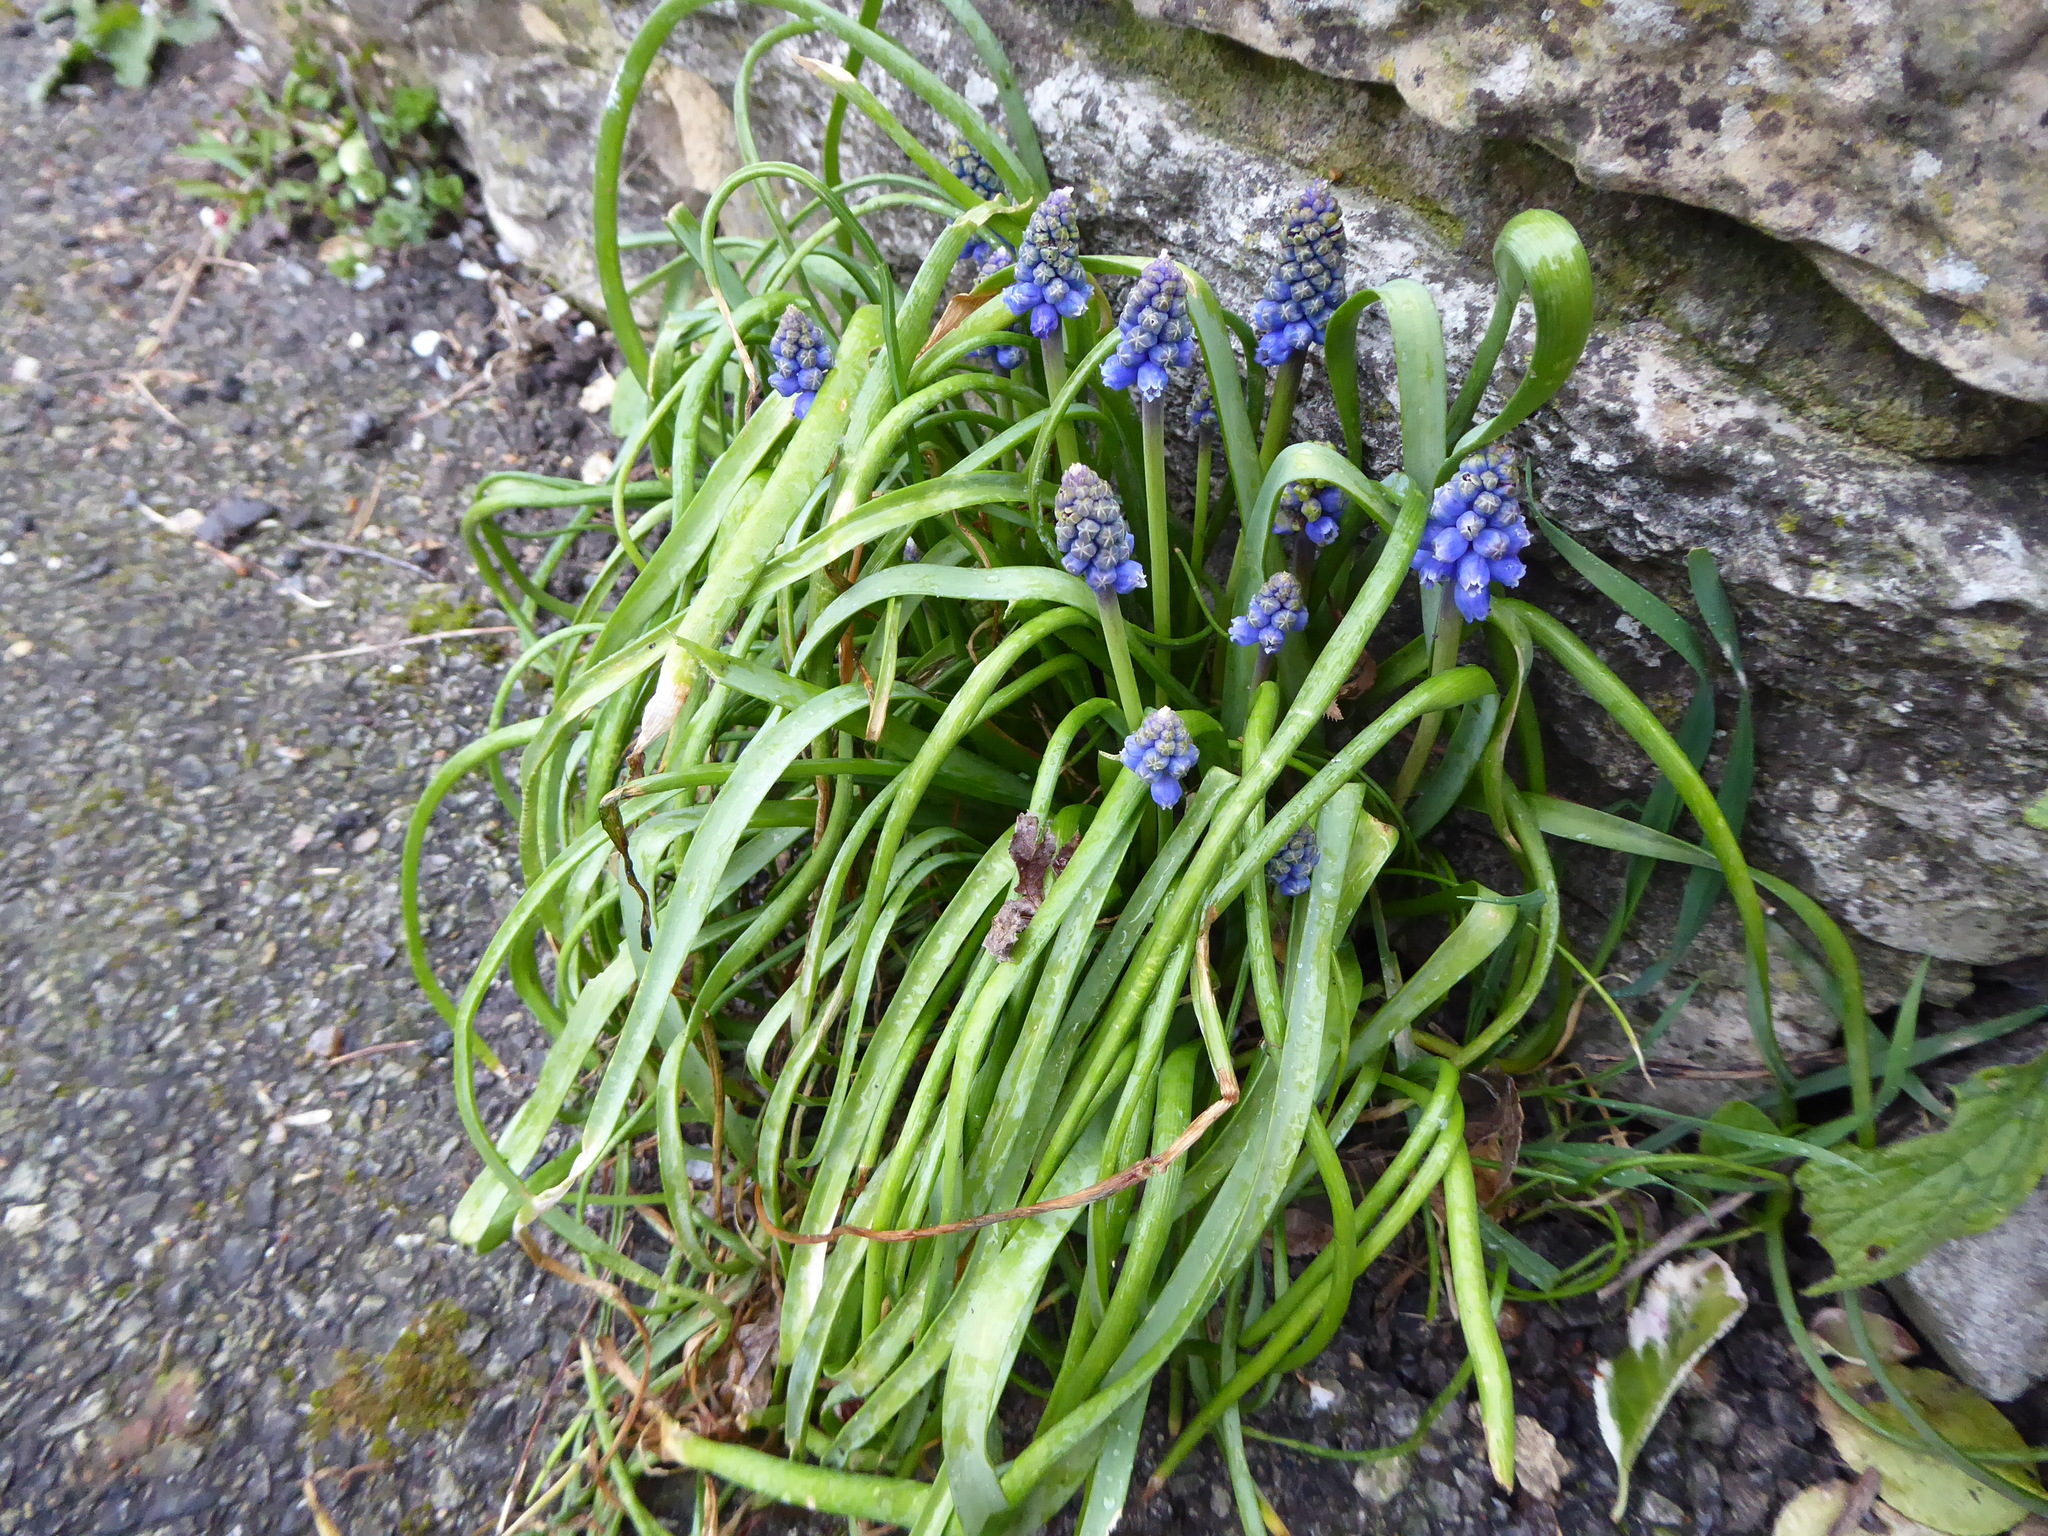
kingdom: Plantae
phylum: Tracheophyta
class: Liliopsida
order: Asparagales
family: Asparagaceae
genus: Muscari
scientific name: Muscari armeniacum
